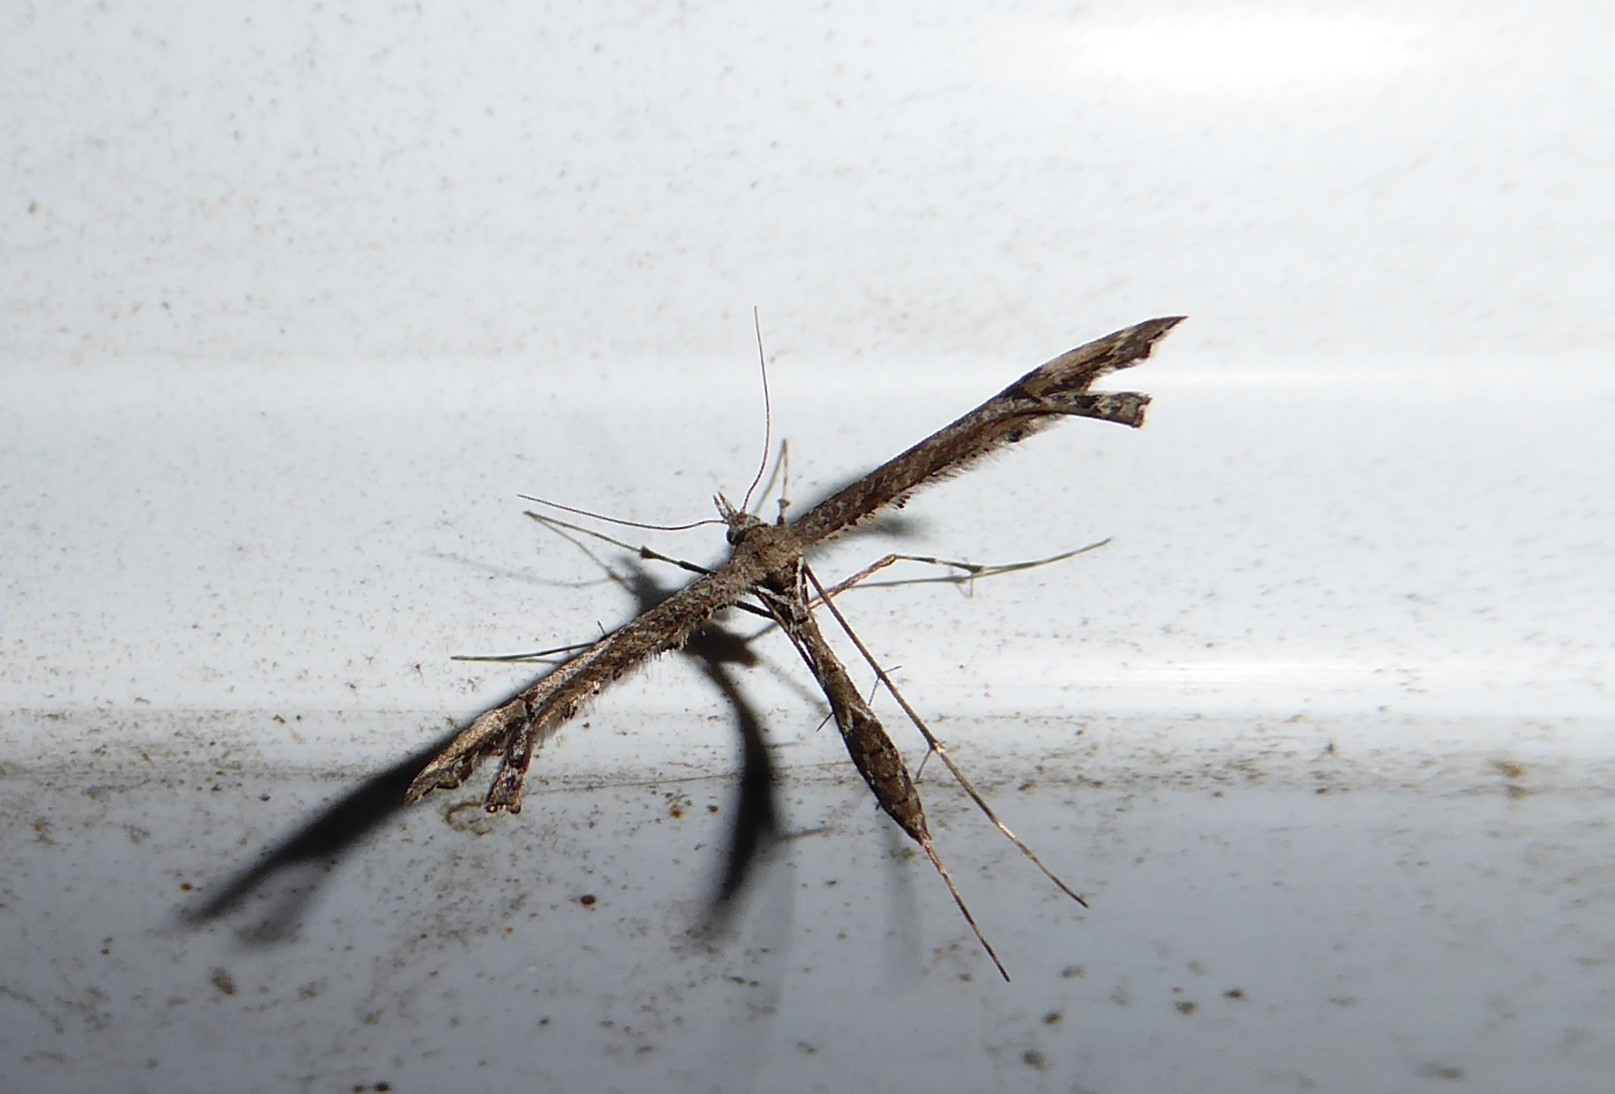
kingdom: Animalia
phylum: Arthropoda
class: Insecta
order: Lepidoptera
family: Pterophoridae
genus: Amblyptilia
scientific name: Amblyptilia repletalis
